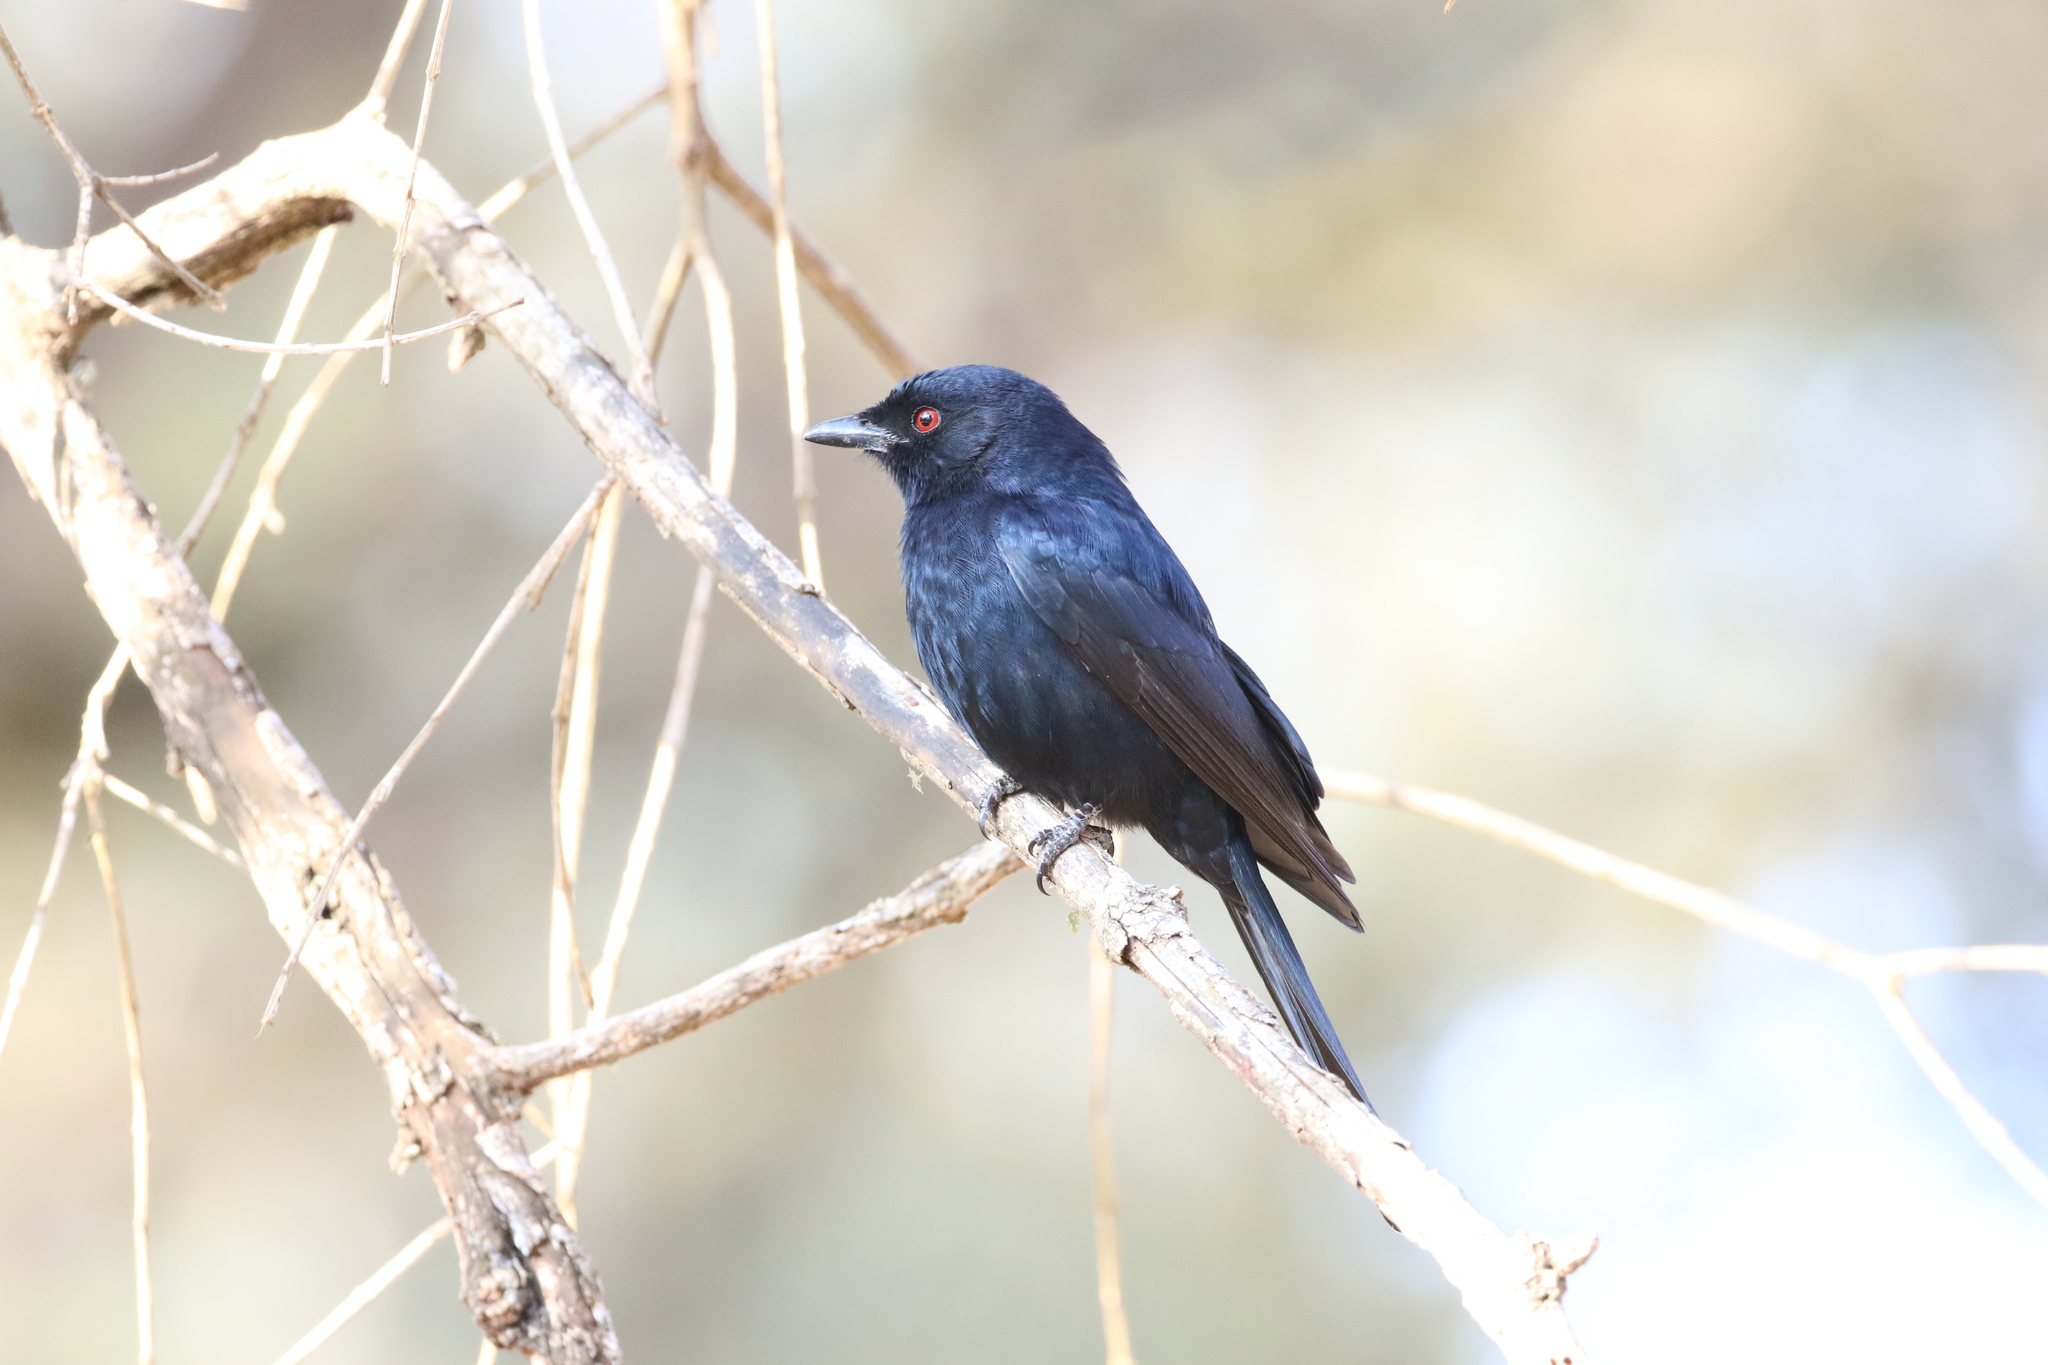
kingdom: Animalia
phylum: Chordata
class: Aves
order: Passeriformes
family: Dicruridae
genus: Dicrurus
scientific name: Dicrurus adsimilis
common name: Fork-tailed drongo
